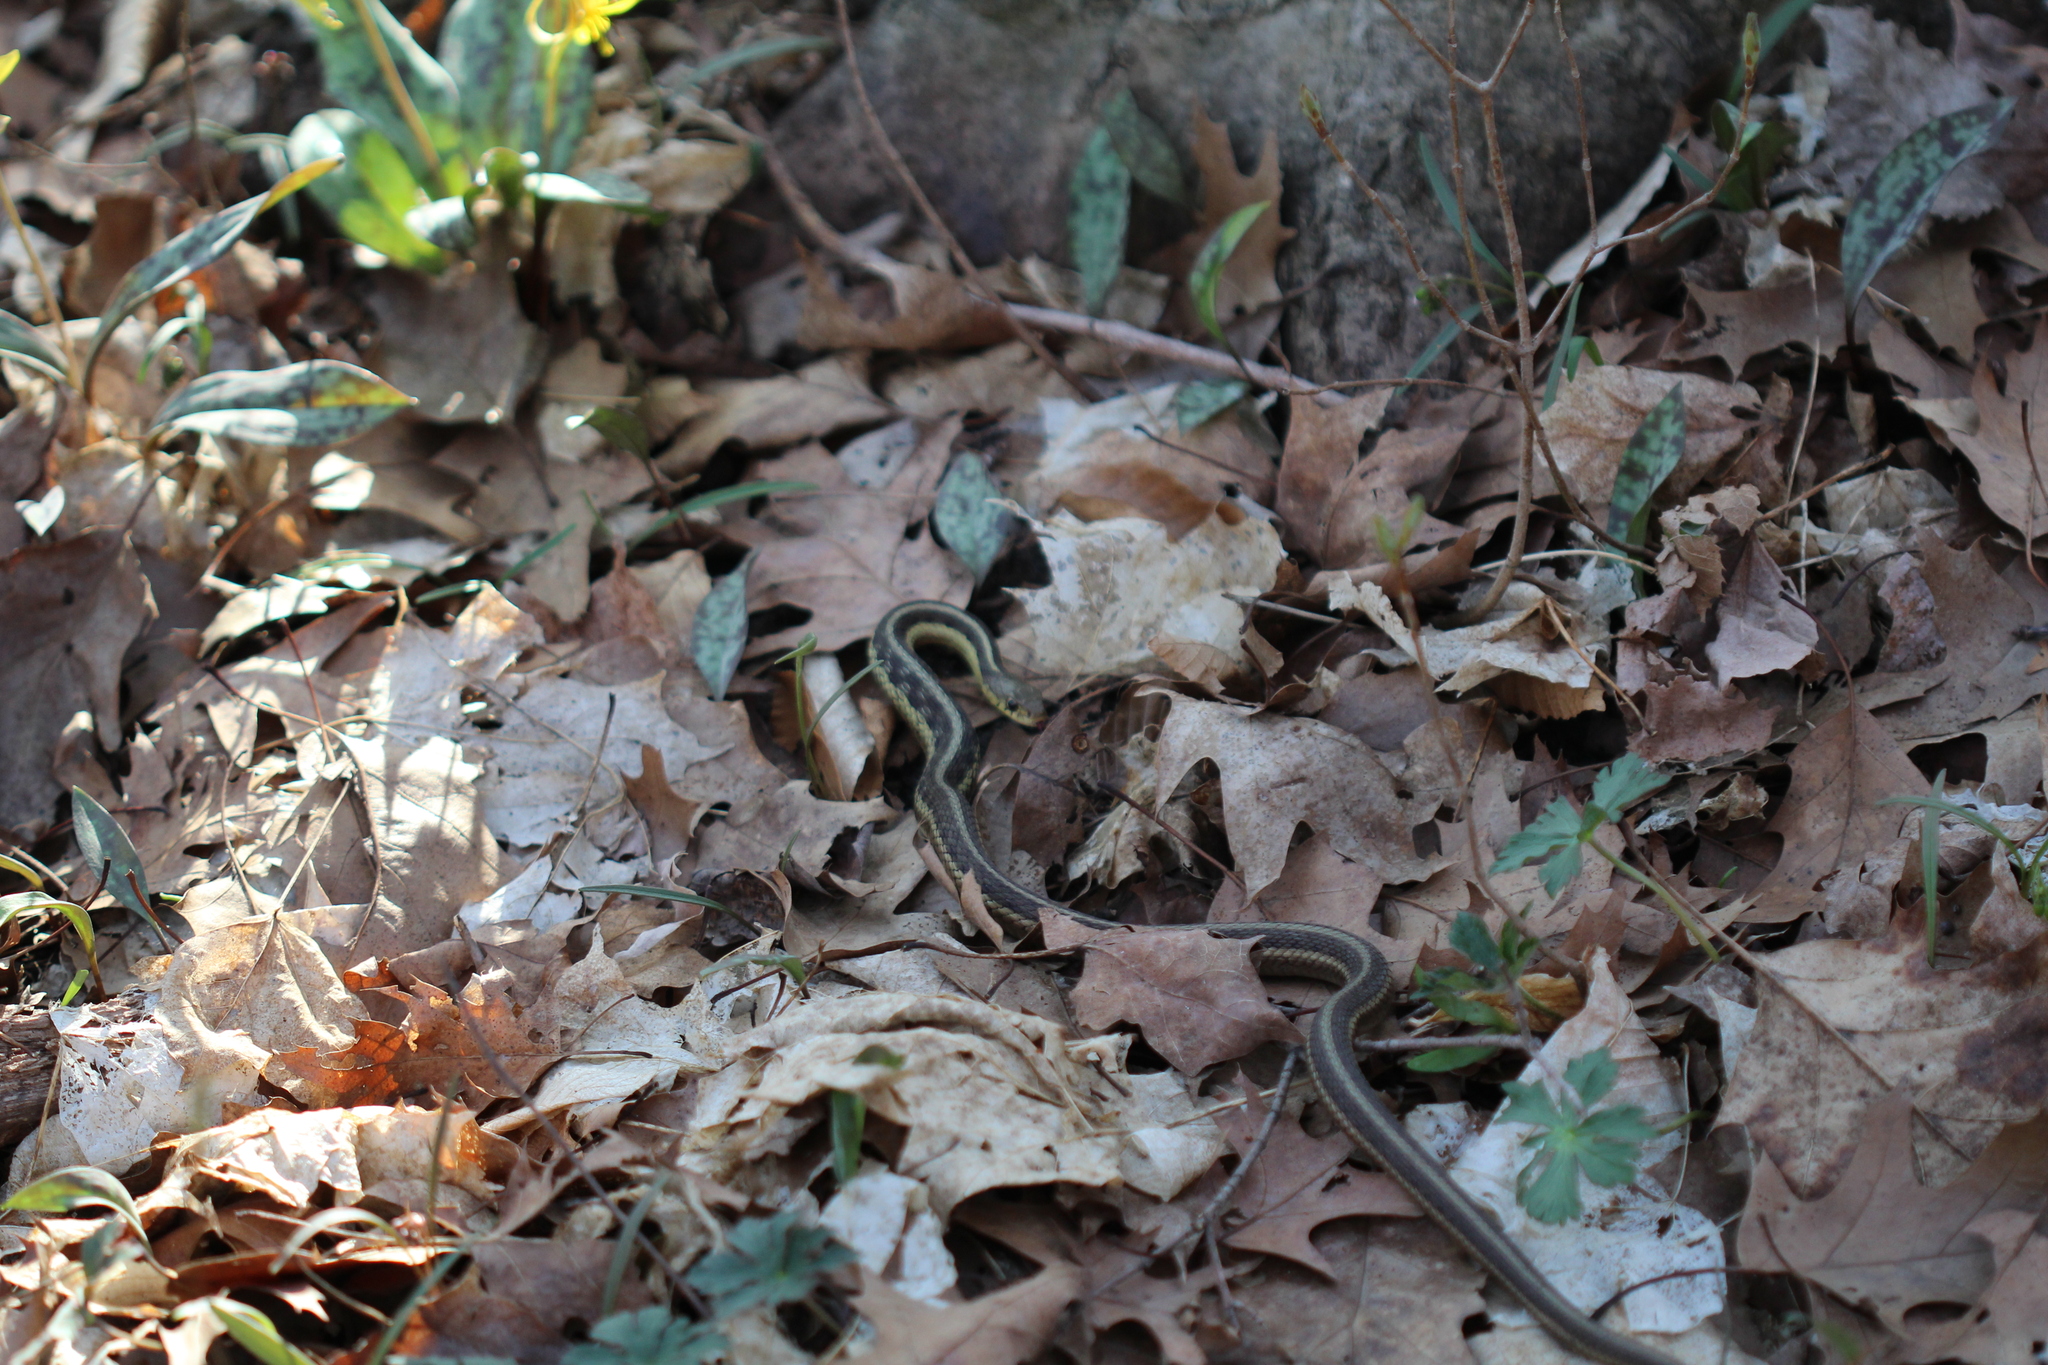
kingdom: Animalia
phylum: Chordata
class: Squamata
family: Colubridae
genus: Thamnophis
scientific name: Thamnophis sirtalis
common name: Common garter snake
